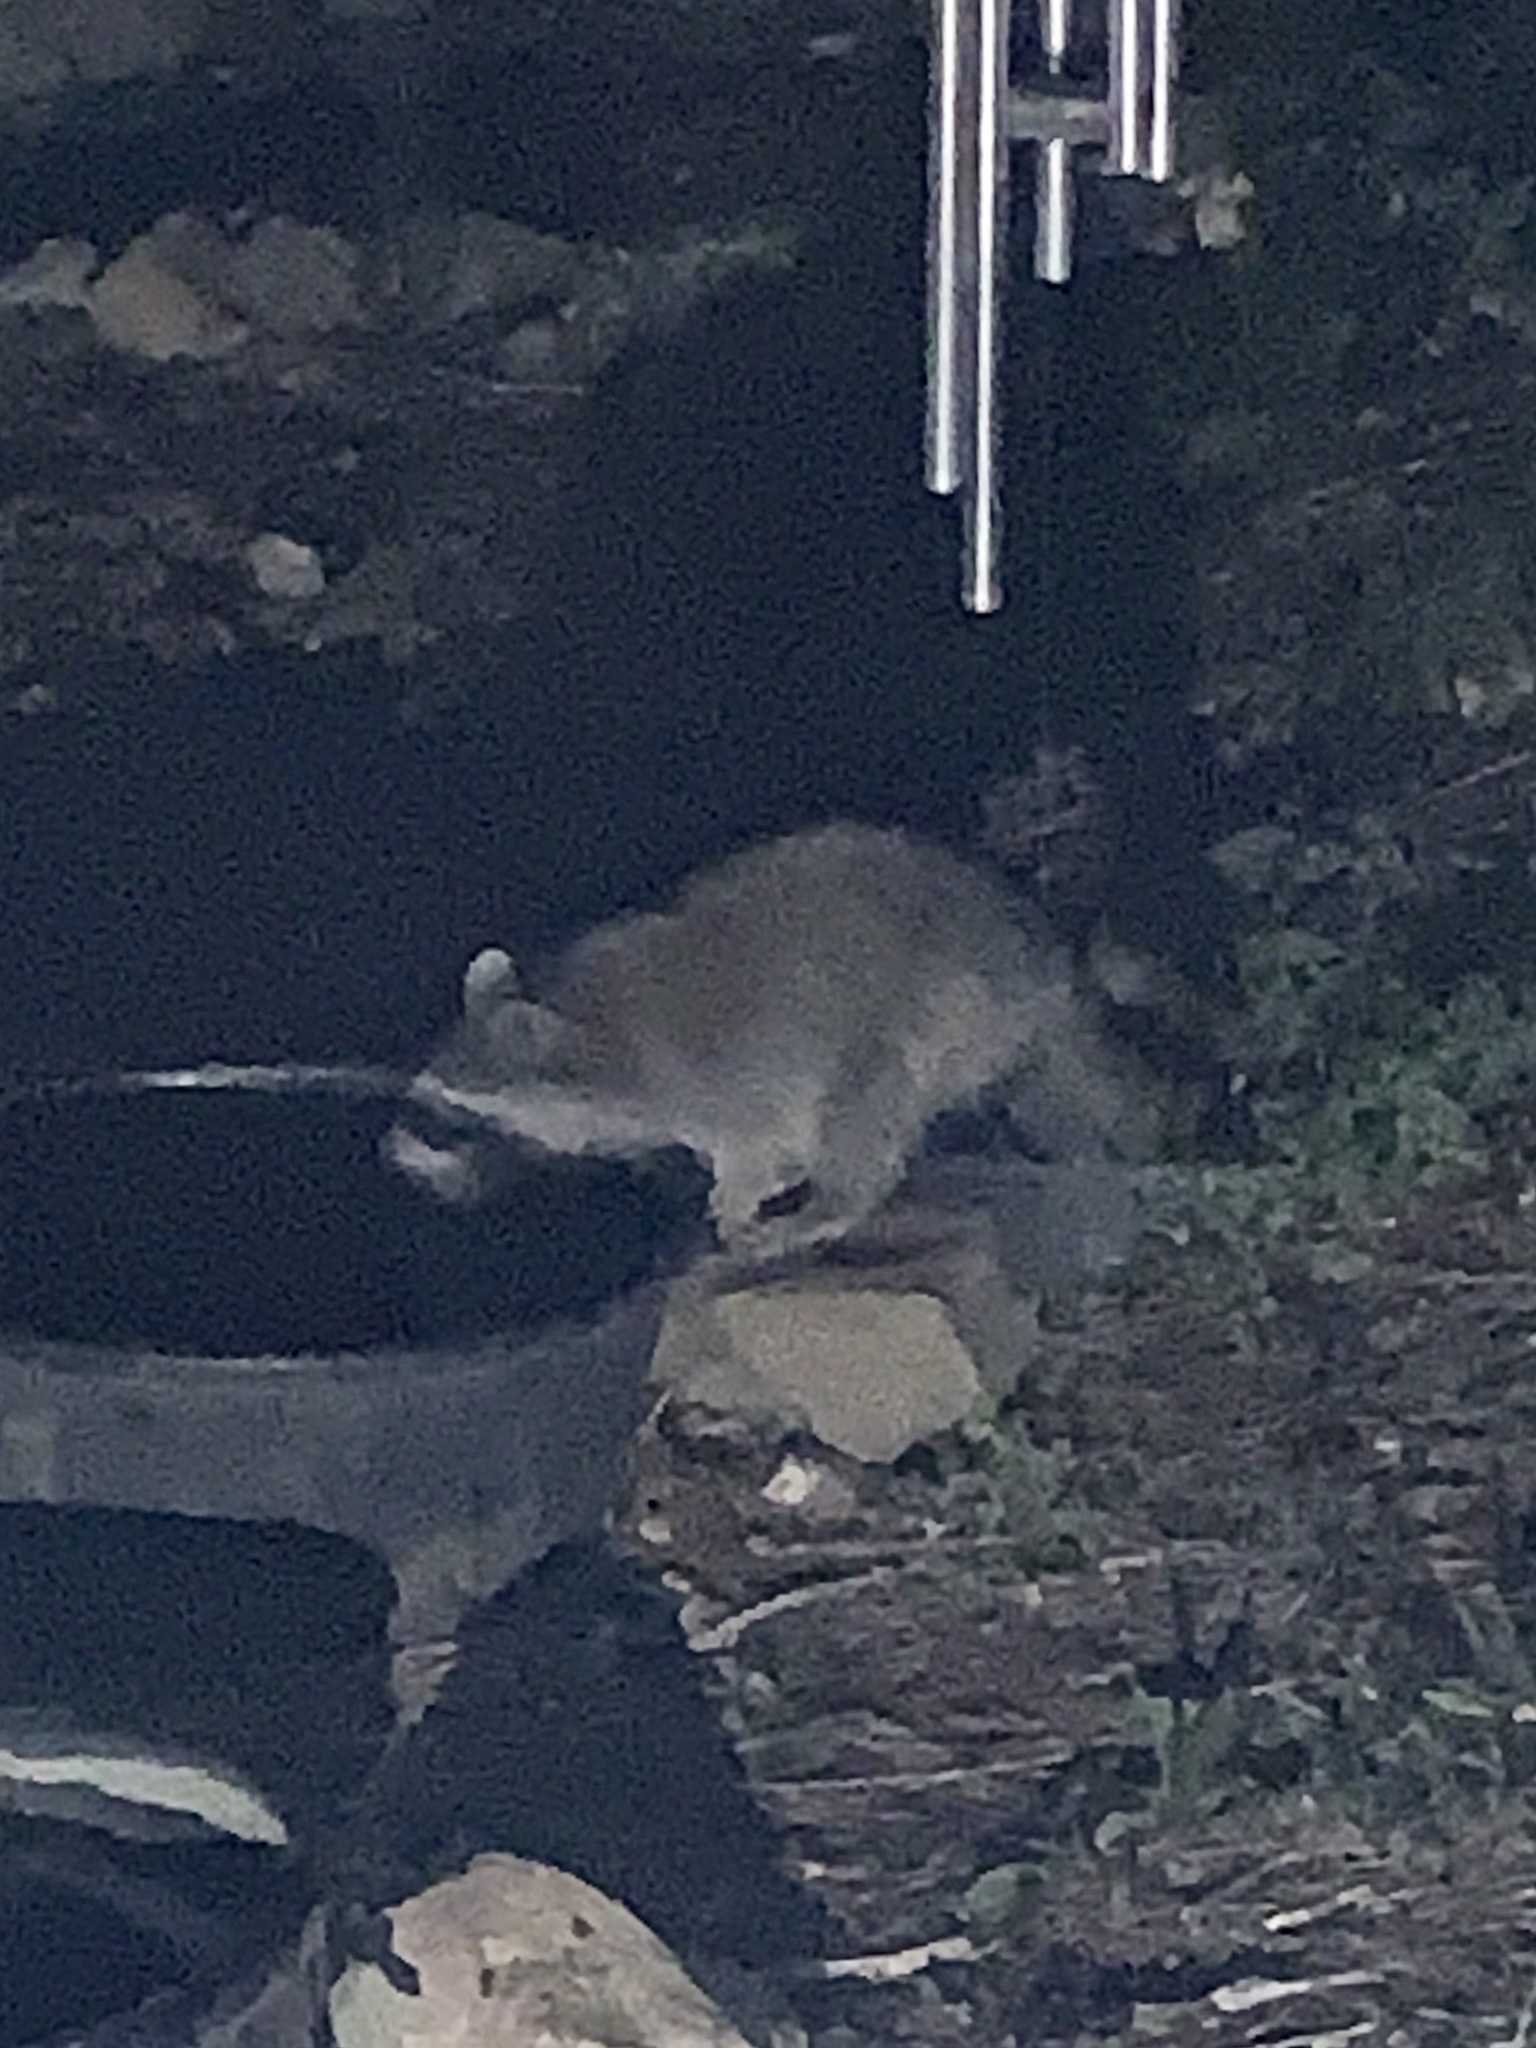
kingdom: Animalia
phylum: Chordata
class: Mammalia
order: Carnivora
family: Procyonidae
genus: Procyon
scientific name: Procyon lotor
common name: Raccoon
